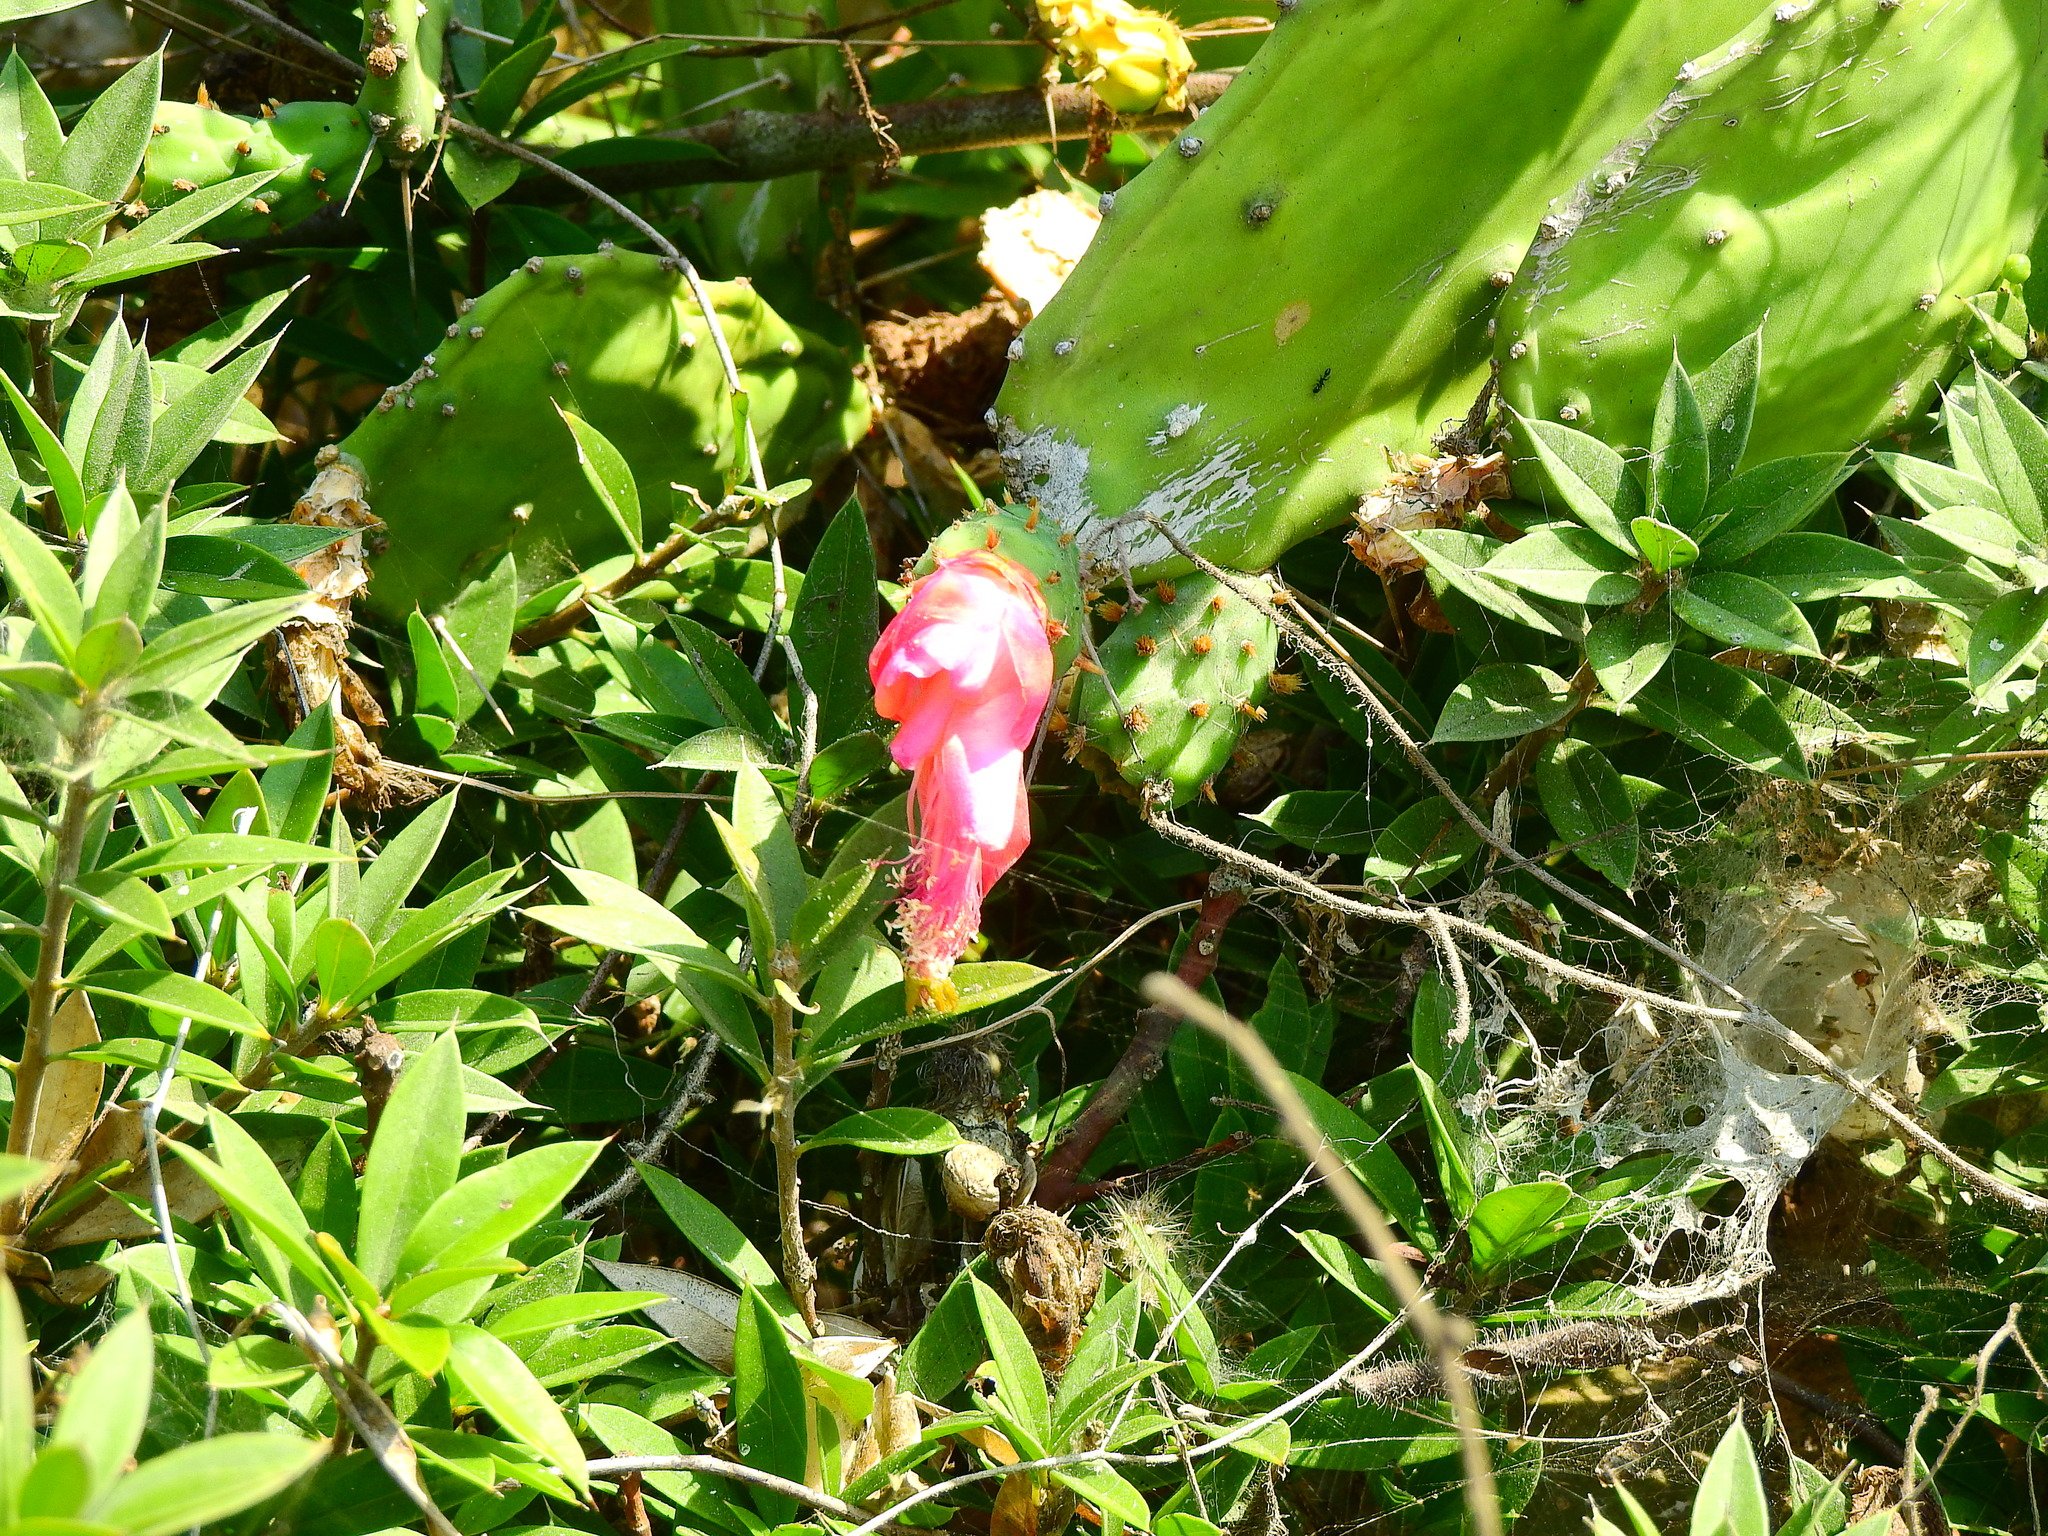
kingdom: Plantae
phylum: Tracheophyta
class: Magnoliopsida
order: Caryophyllales
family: Cactaceae
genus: Opuntia
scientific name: Opuntia hyptiacantha
